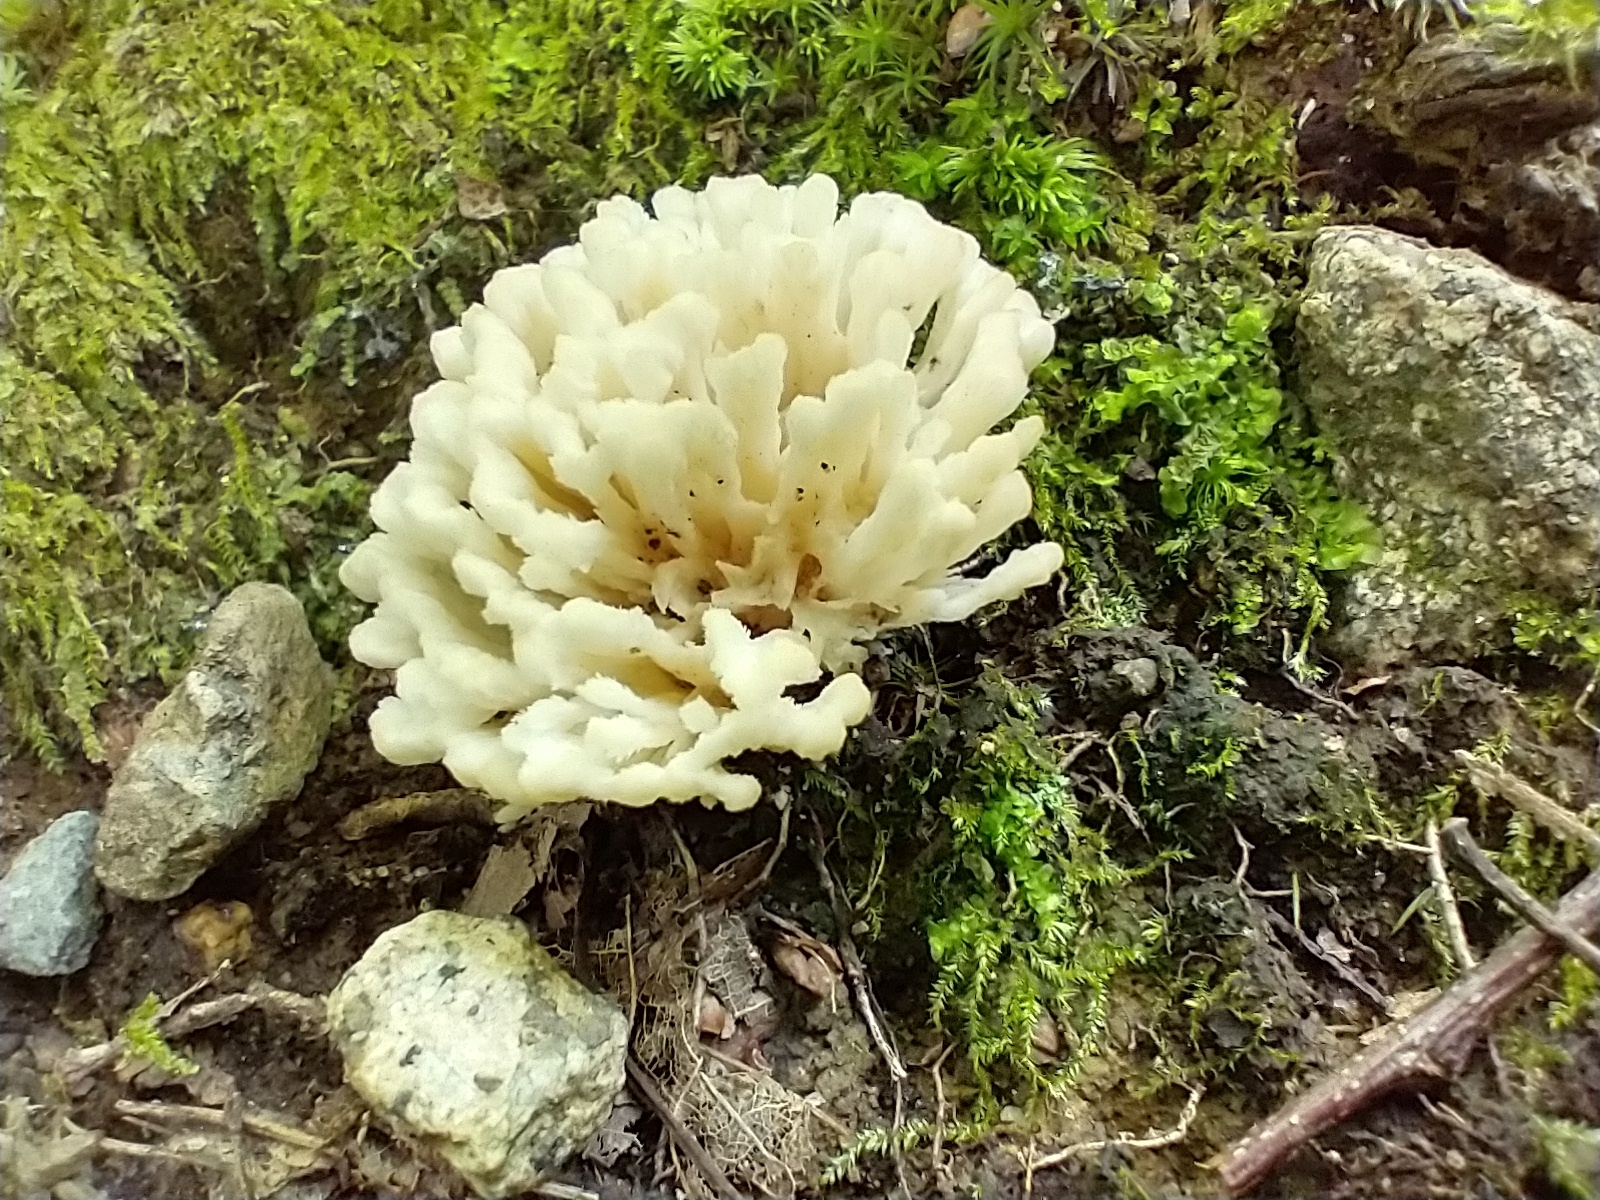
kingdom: Fungi
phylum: Basidiomycota
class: Agaricomycetes
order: Sebacinales
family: Sebacinaceae
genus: Sebacina
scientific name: Sebacina schweinitzii
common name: Jellied false coral fungus
